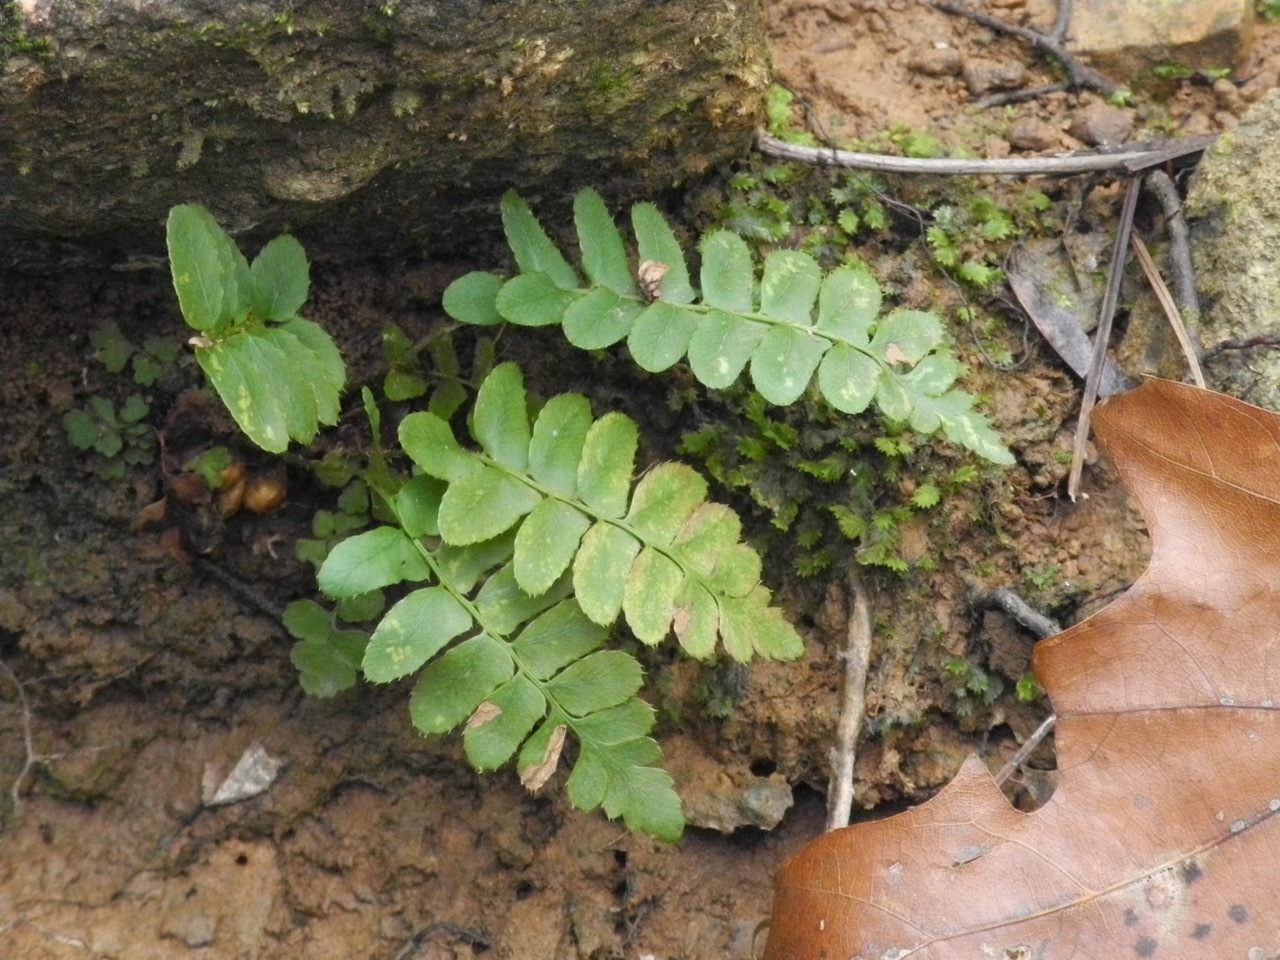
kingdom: Plantae
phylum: Tracheophyta
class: Polypodiopsida
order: Polypodiales
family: Dryopteridaceae
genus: Polystichum
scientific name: Polystichum acrostichoides
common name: Christmas fern
